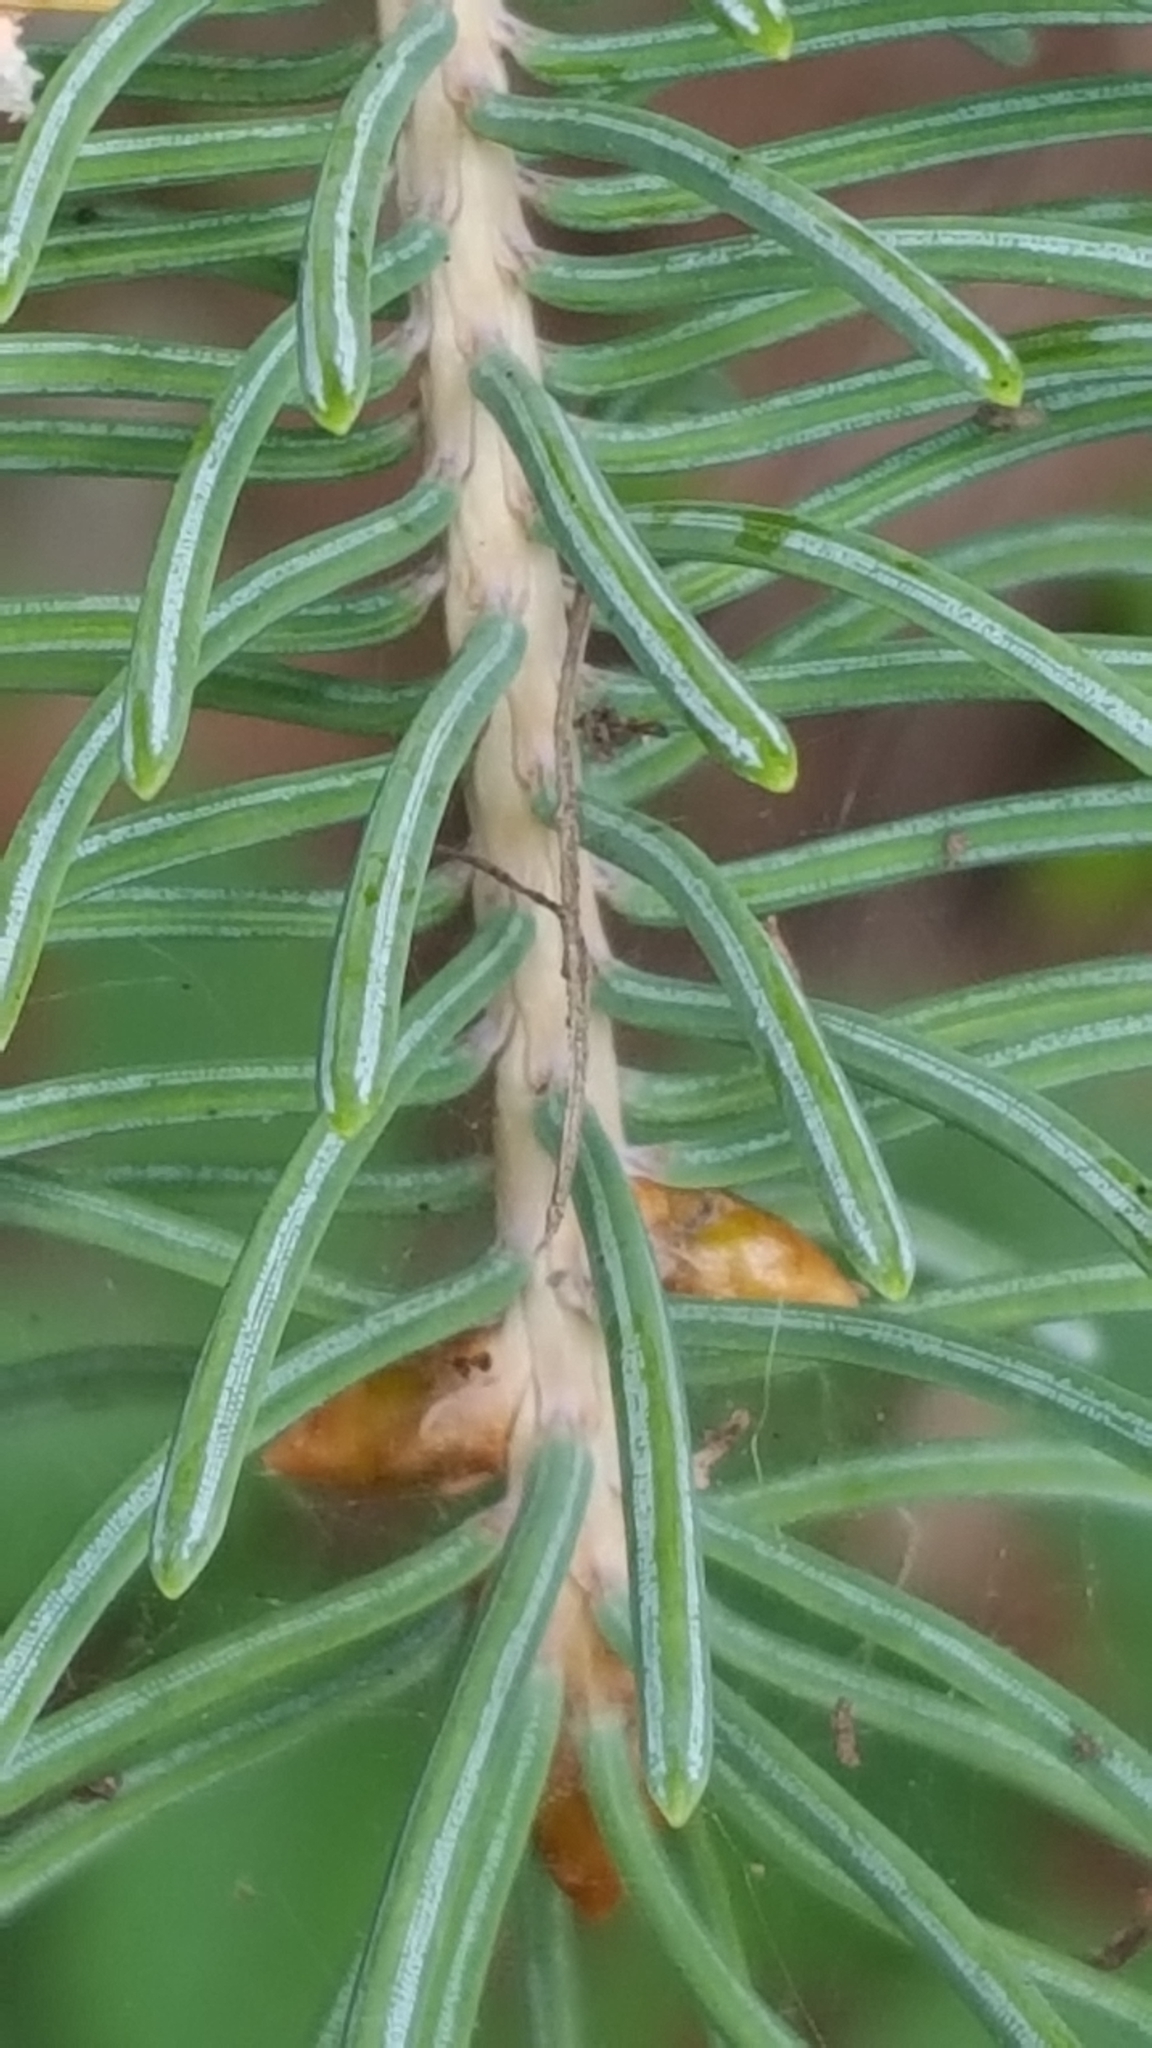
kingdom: Plantae
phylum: Tracheophyta
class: Pinopsida
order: Pinales
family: Pinaceae
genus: Picea
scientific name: Picea glauca
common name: White spruce
